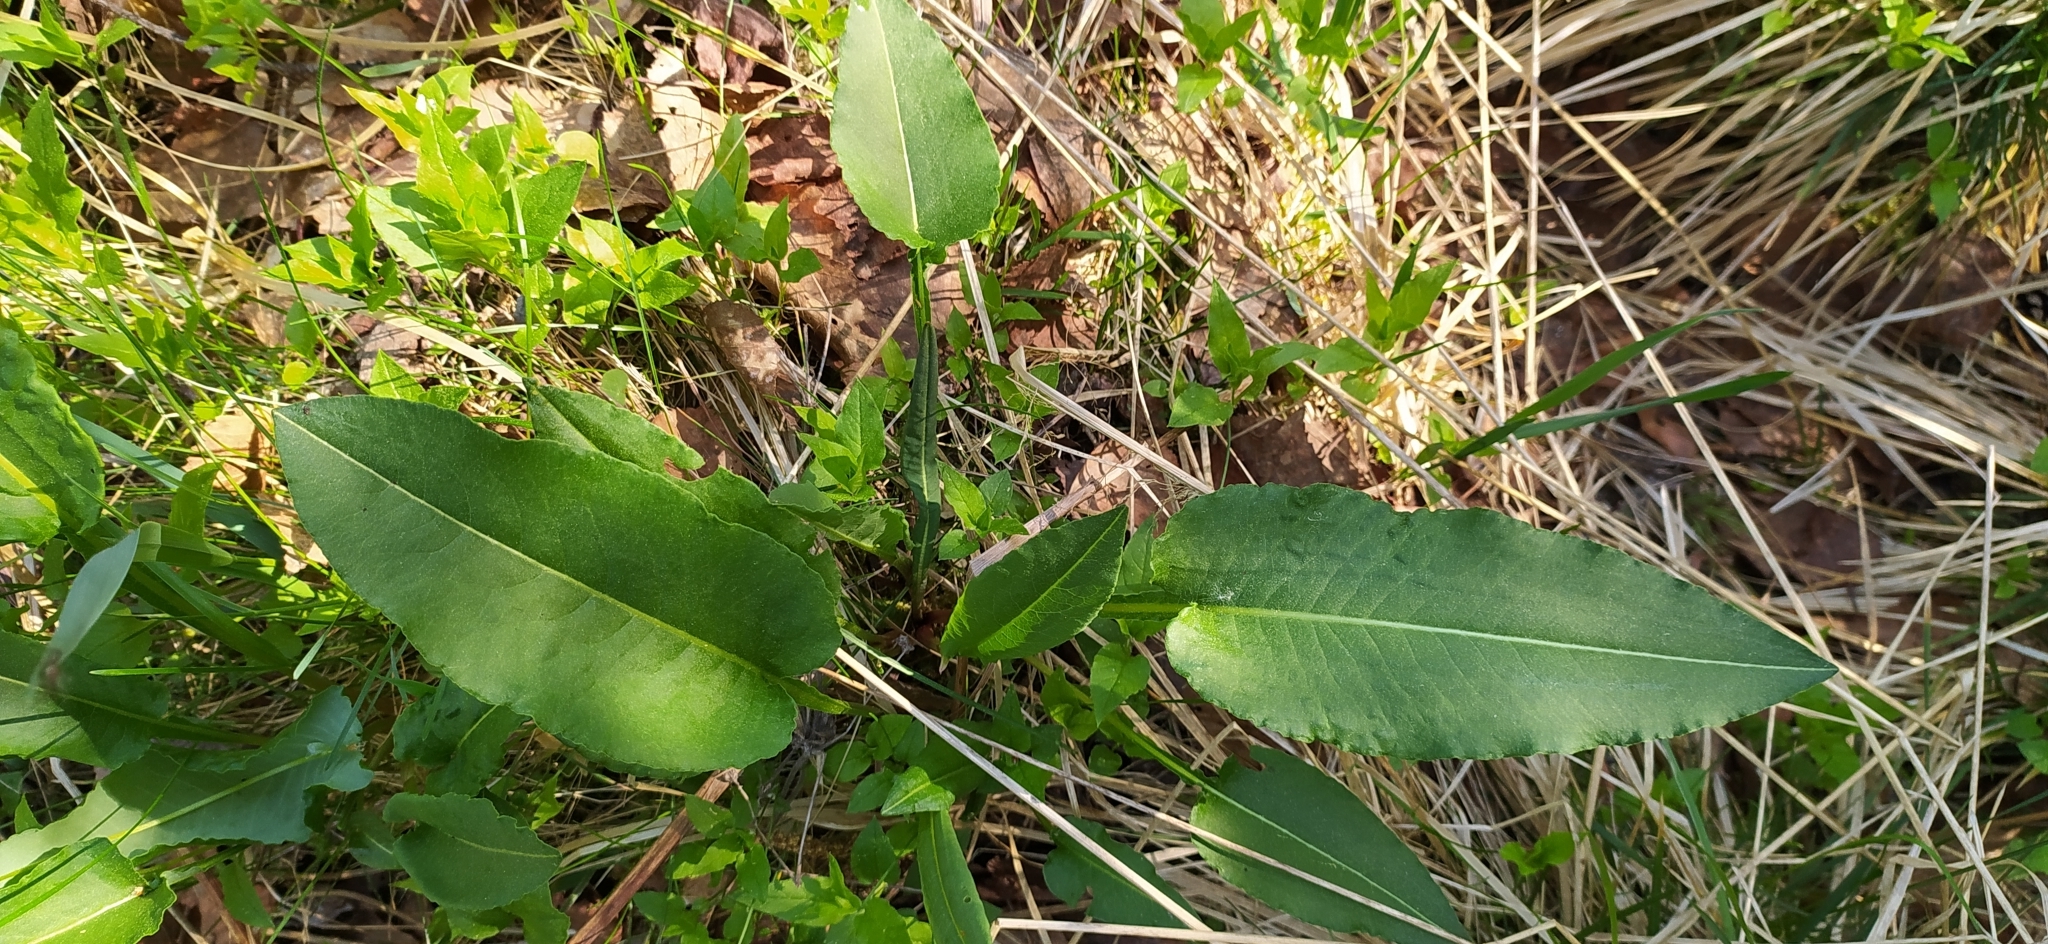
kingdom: Plantae
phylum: Tracheophyta
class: Magnoliopsida
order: Caryophyllales
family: Polygonaceae
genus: Bistorta
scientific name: Bistorta officinalis
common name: Common bistort
